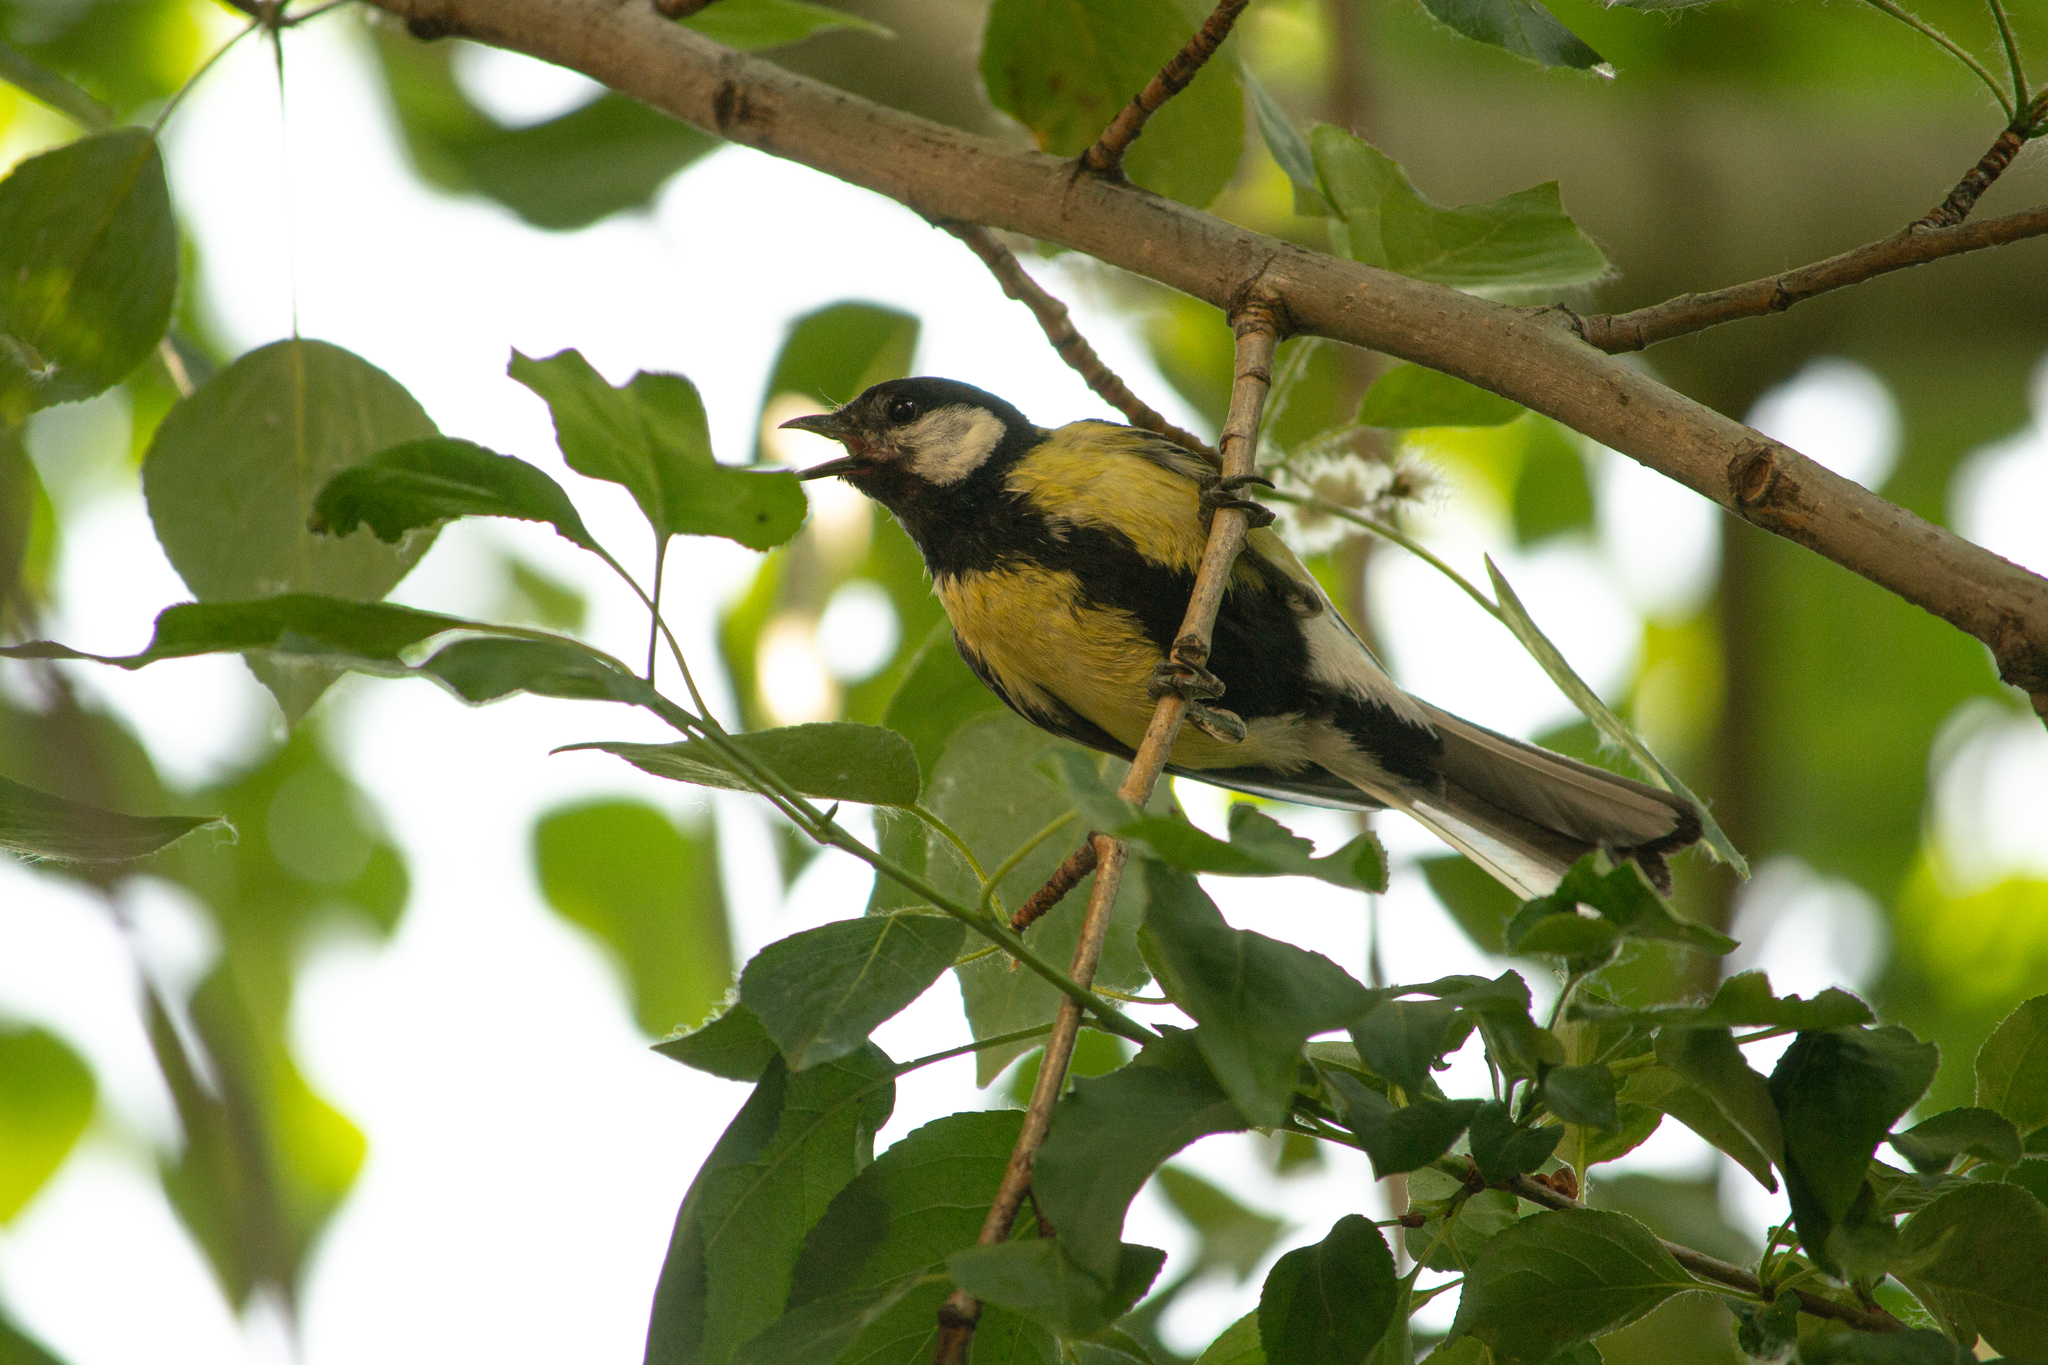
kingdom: Animalia
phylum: Chordata
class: Aves
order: Passeriformes
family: Paridae
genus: Parus
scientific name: Parus major
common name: Great tit
